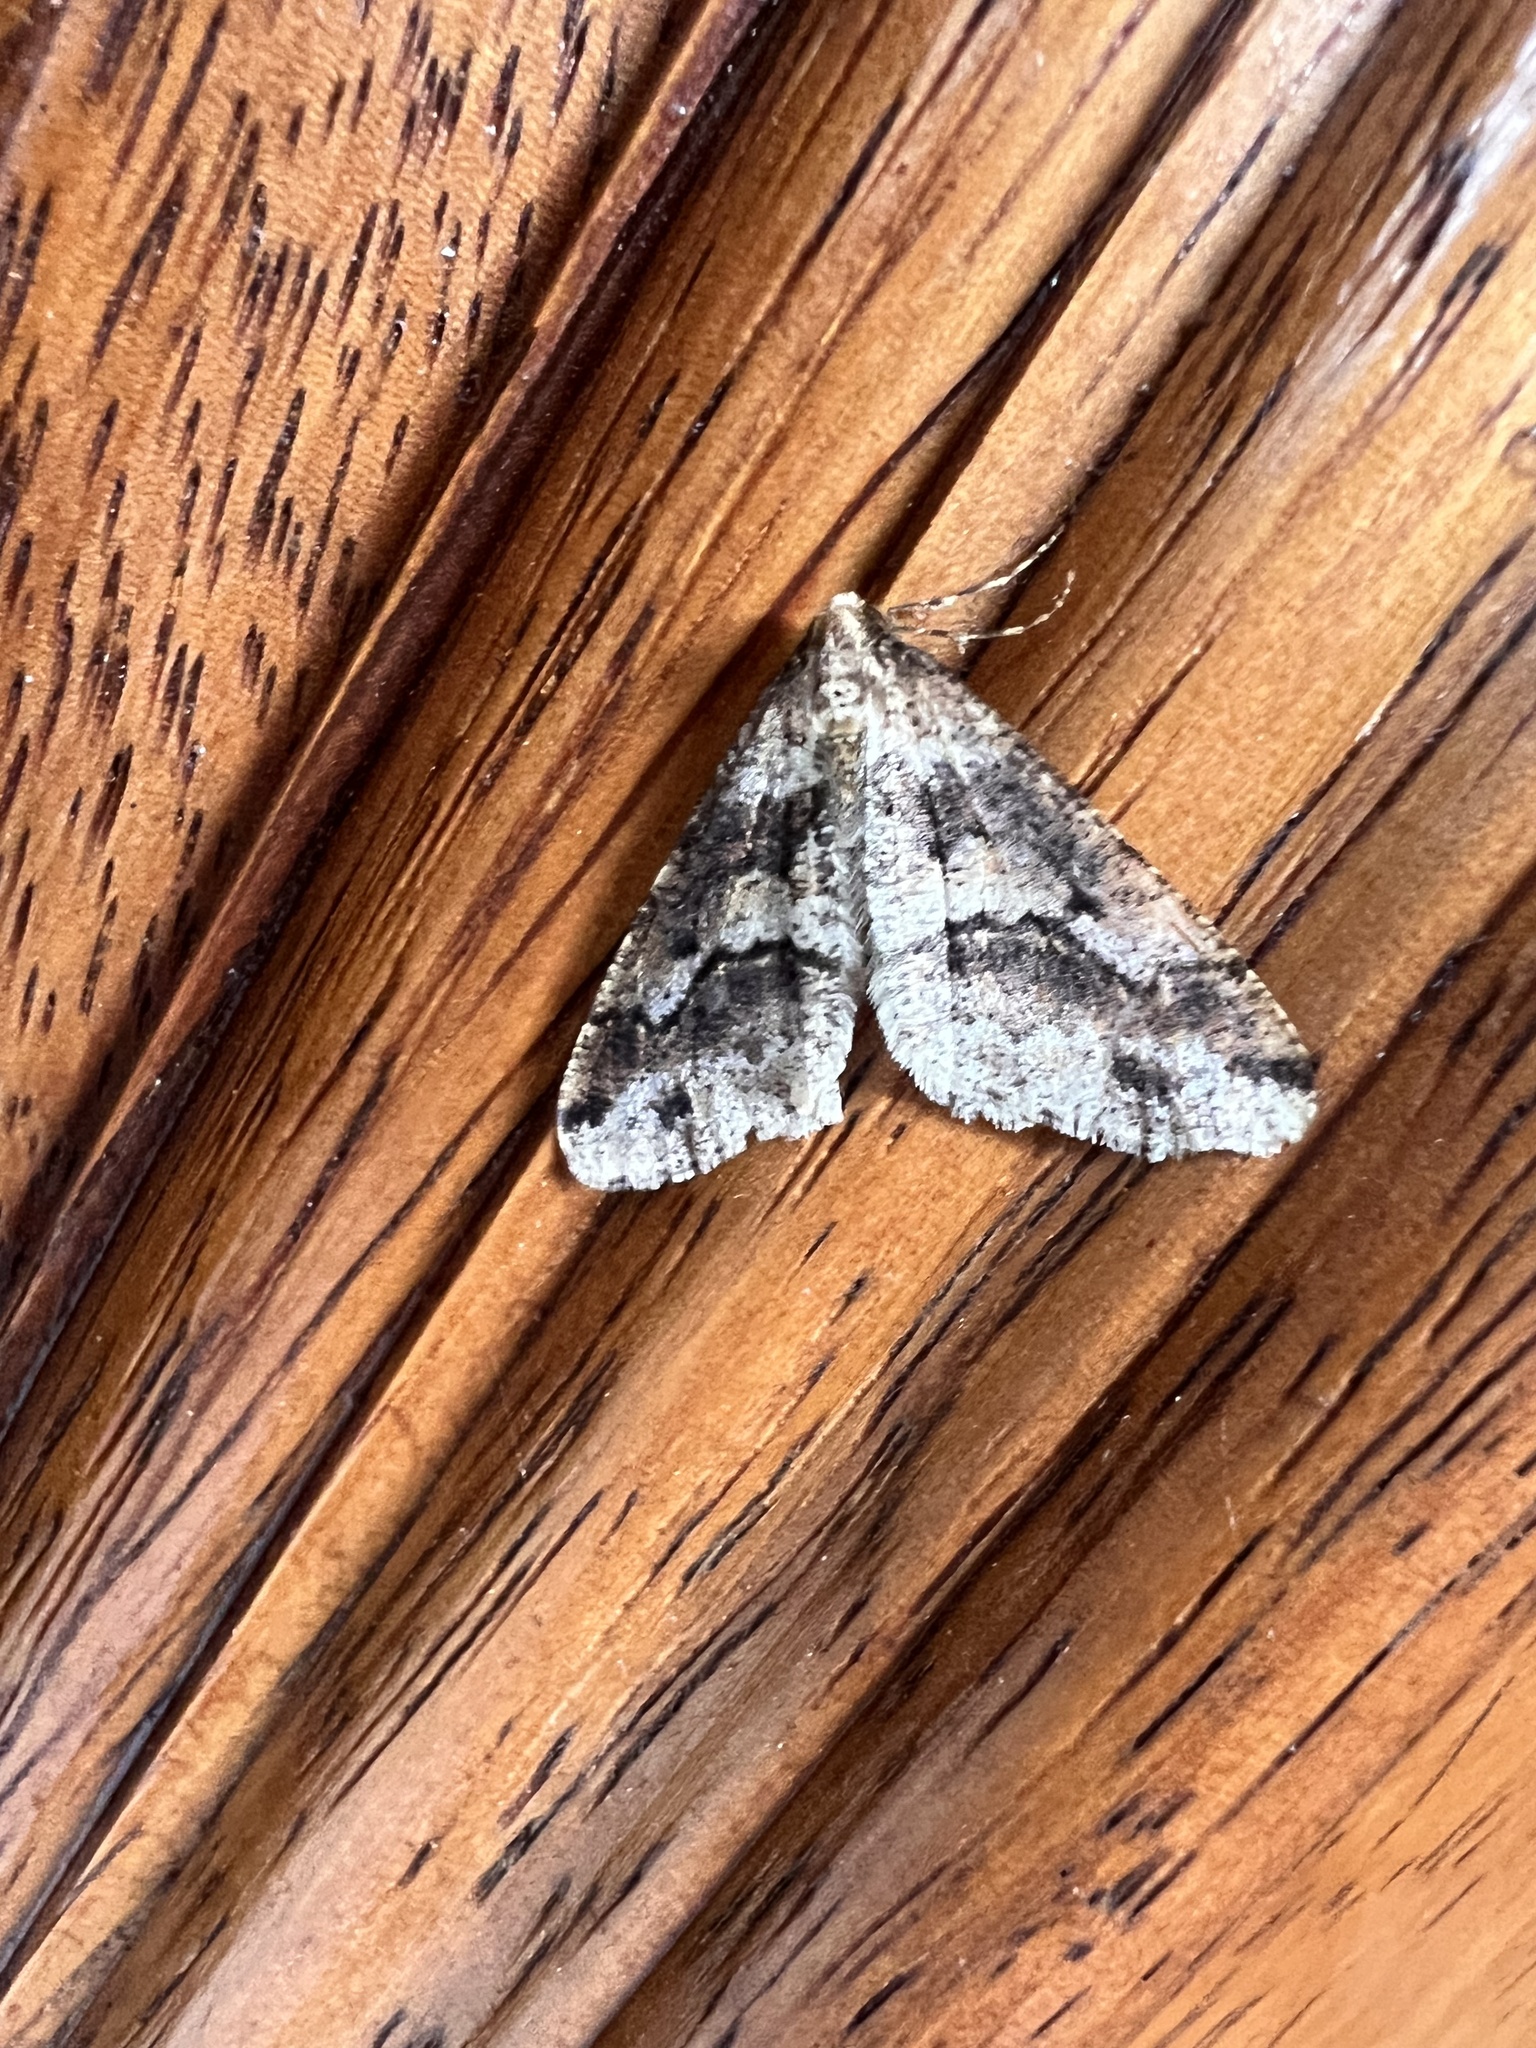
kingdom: Animalia
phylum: Arthropoda
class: Insecta
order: Lepidoptera
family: Geometridae
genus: Erannis
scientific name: Erannis vancouverensis
